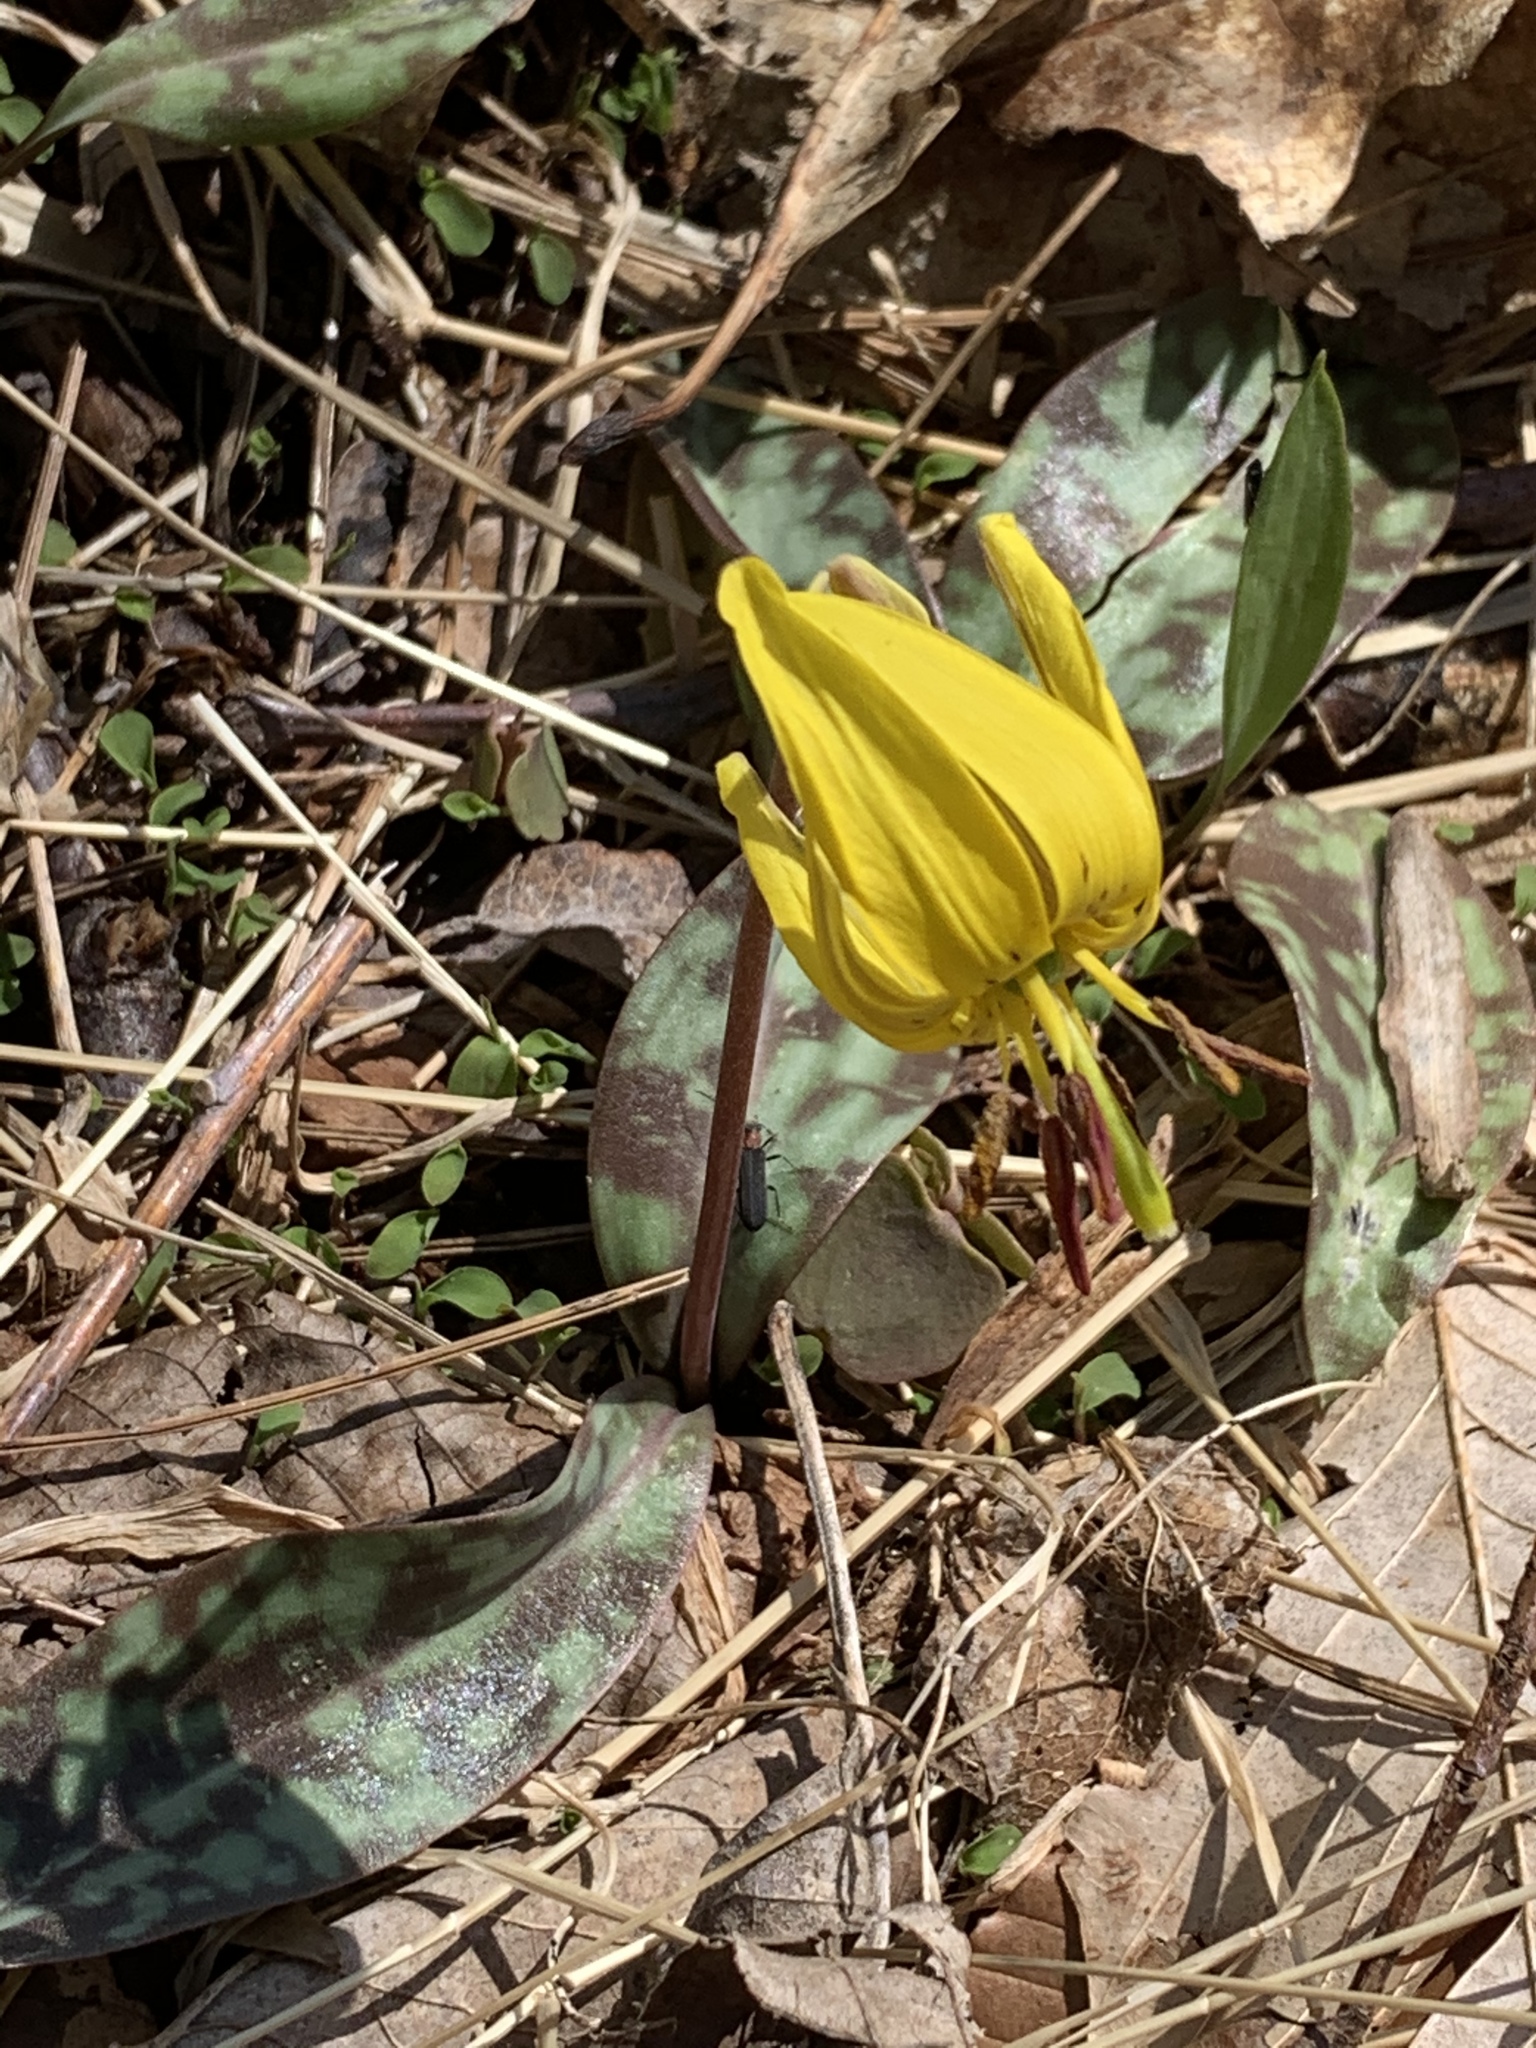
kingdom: Plantae
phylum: Tracheophyta
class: Liliopsida
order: Liliales
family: Liliaceae
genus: Erythronium
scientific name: Erythronium americanum
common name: Yellow adder's-tongue
